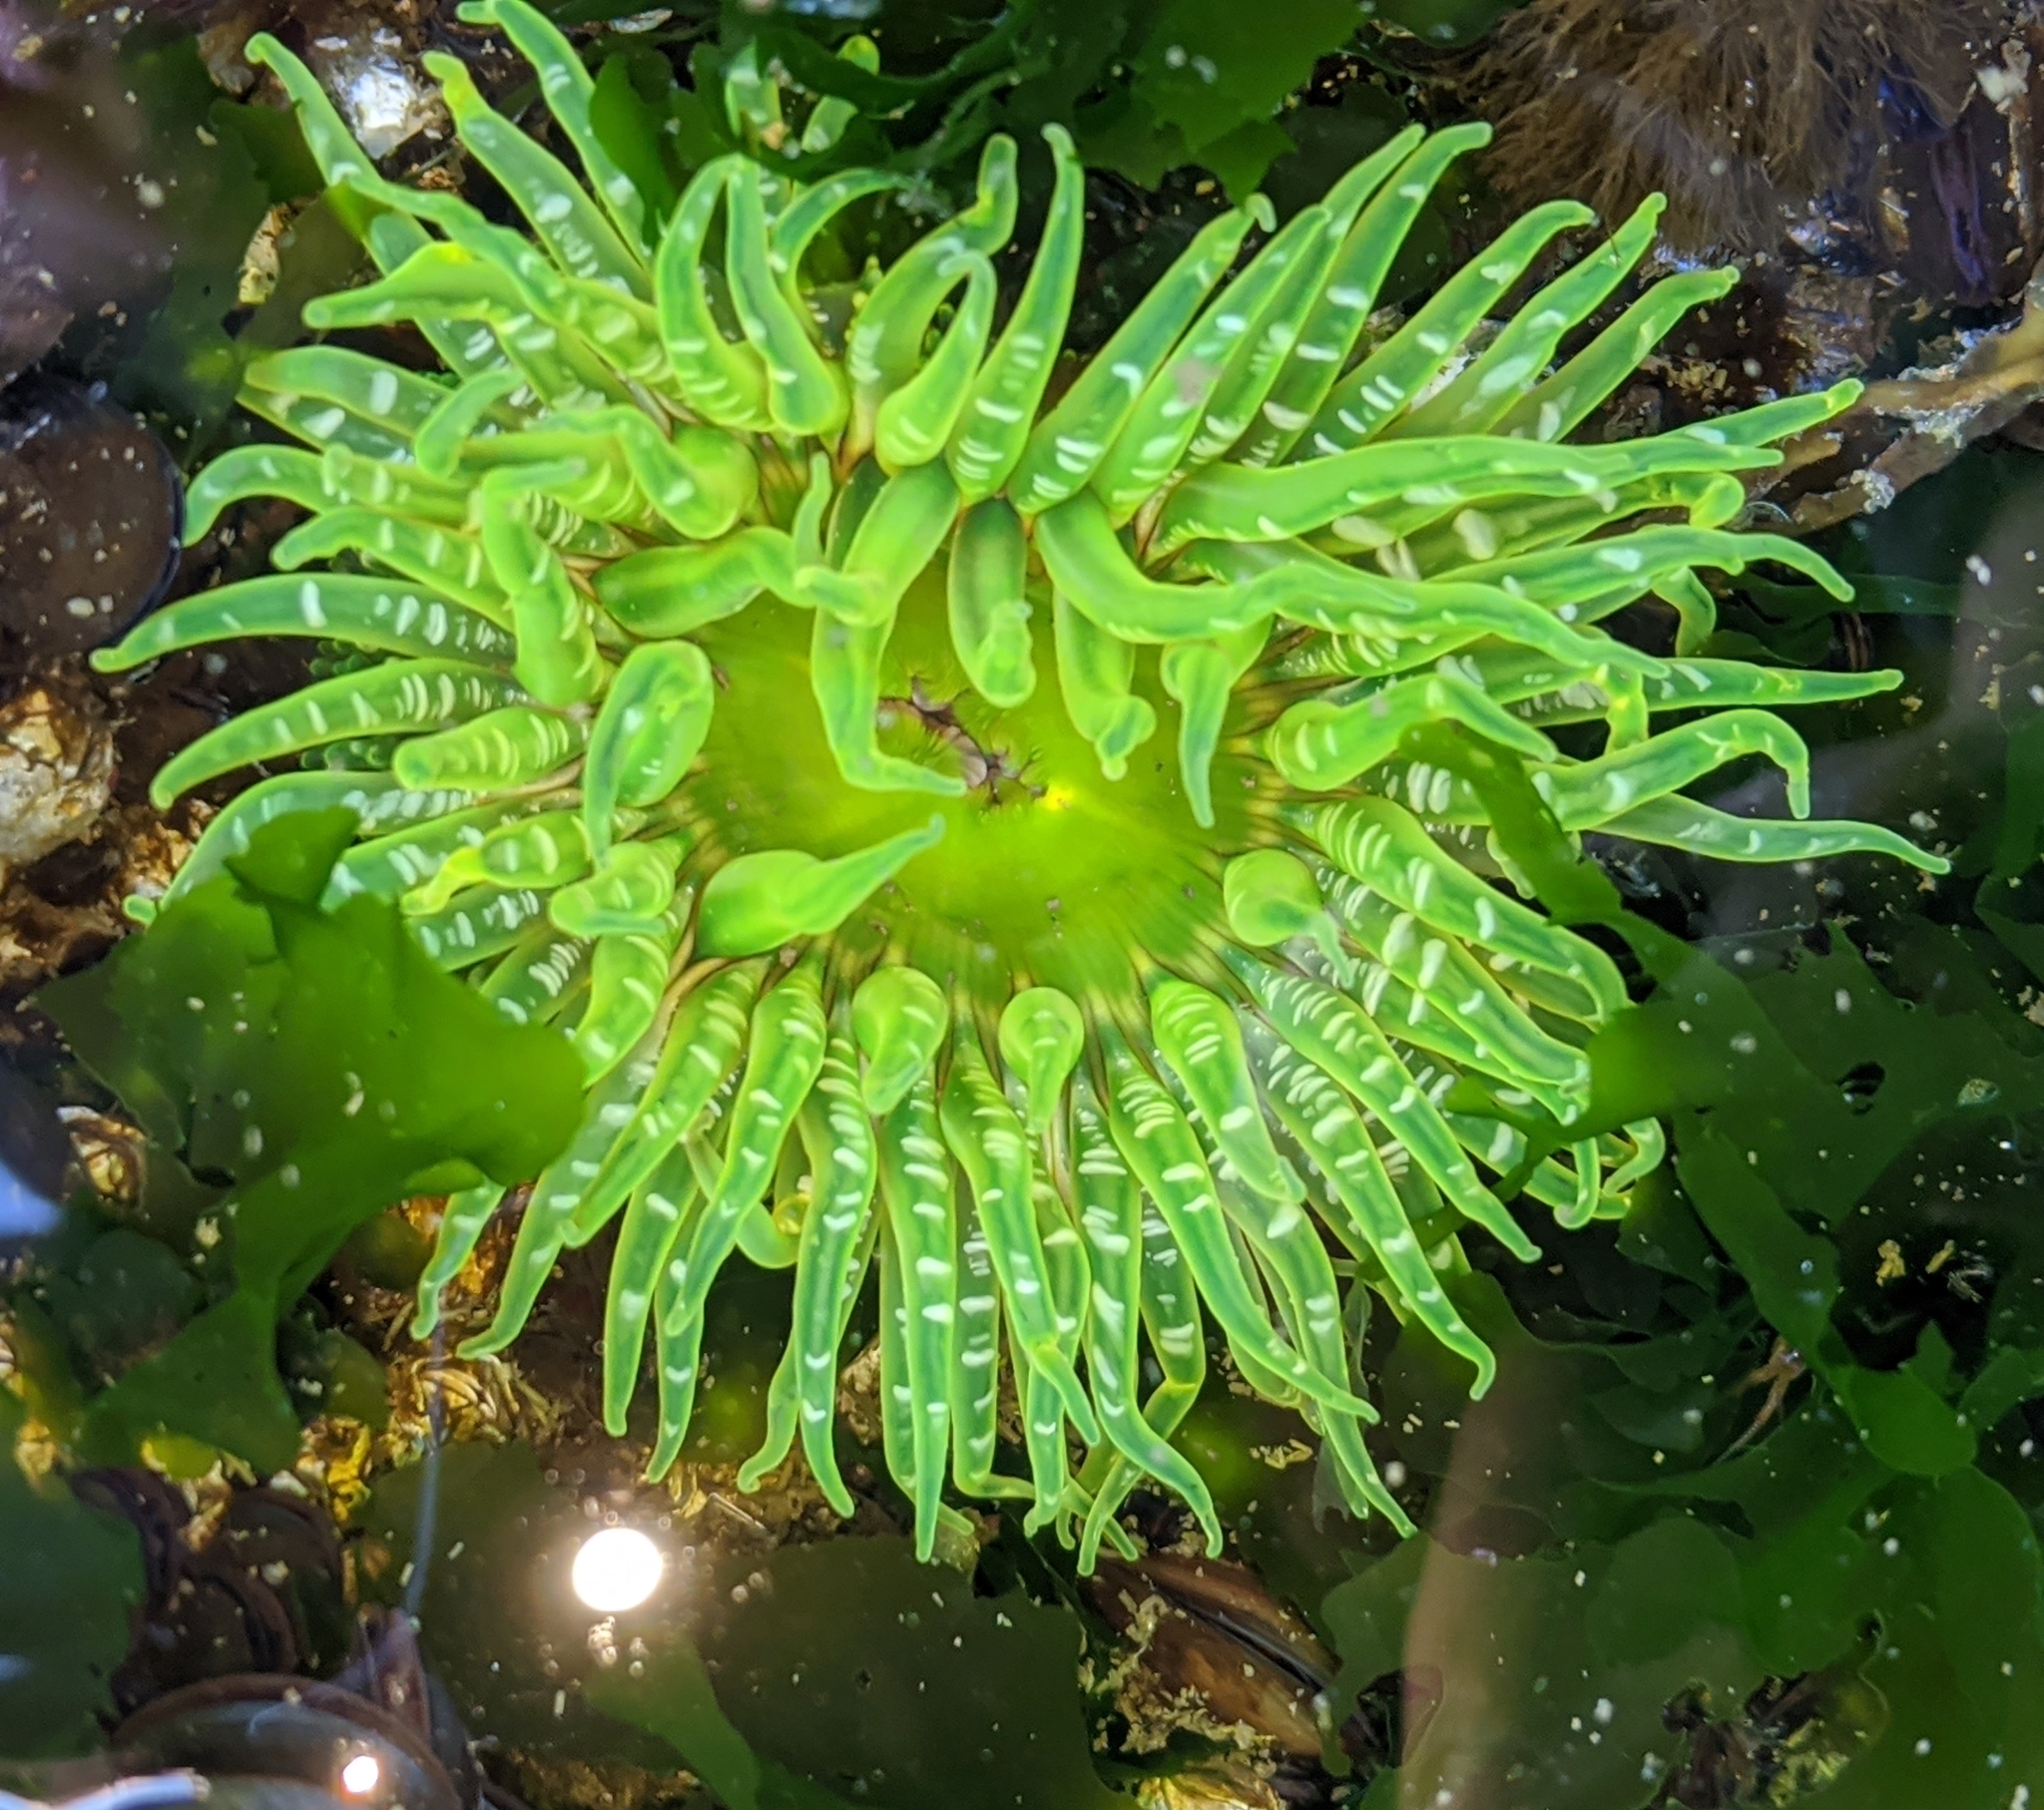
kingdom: Animalia
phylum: Cnidaria
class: Anthozoa
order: Actiniaria
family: Actiniidae
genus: Anthopleura
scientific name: Anthopleura artemisia
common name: Buried sea anemone
